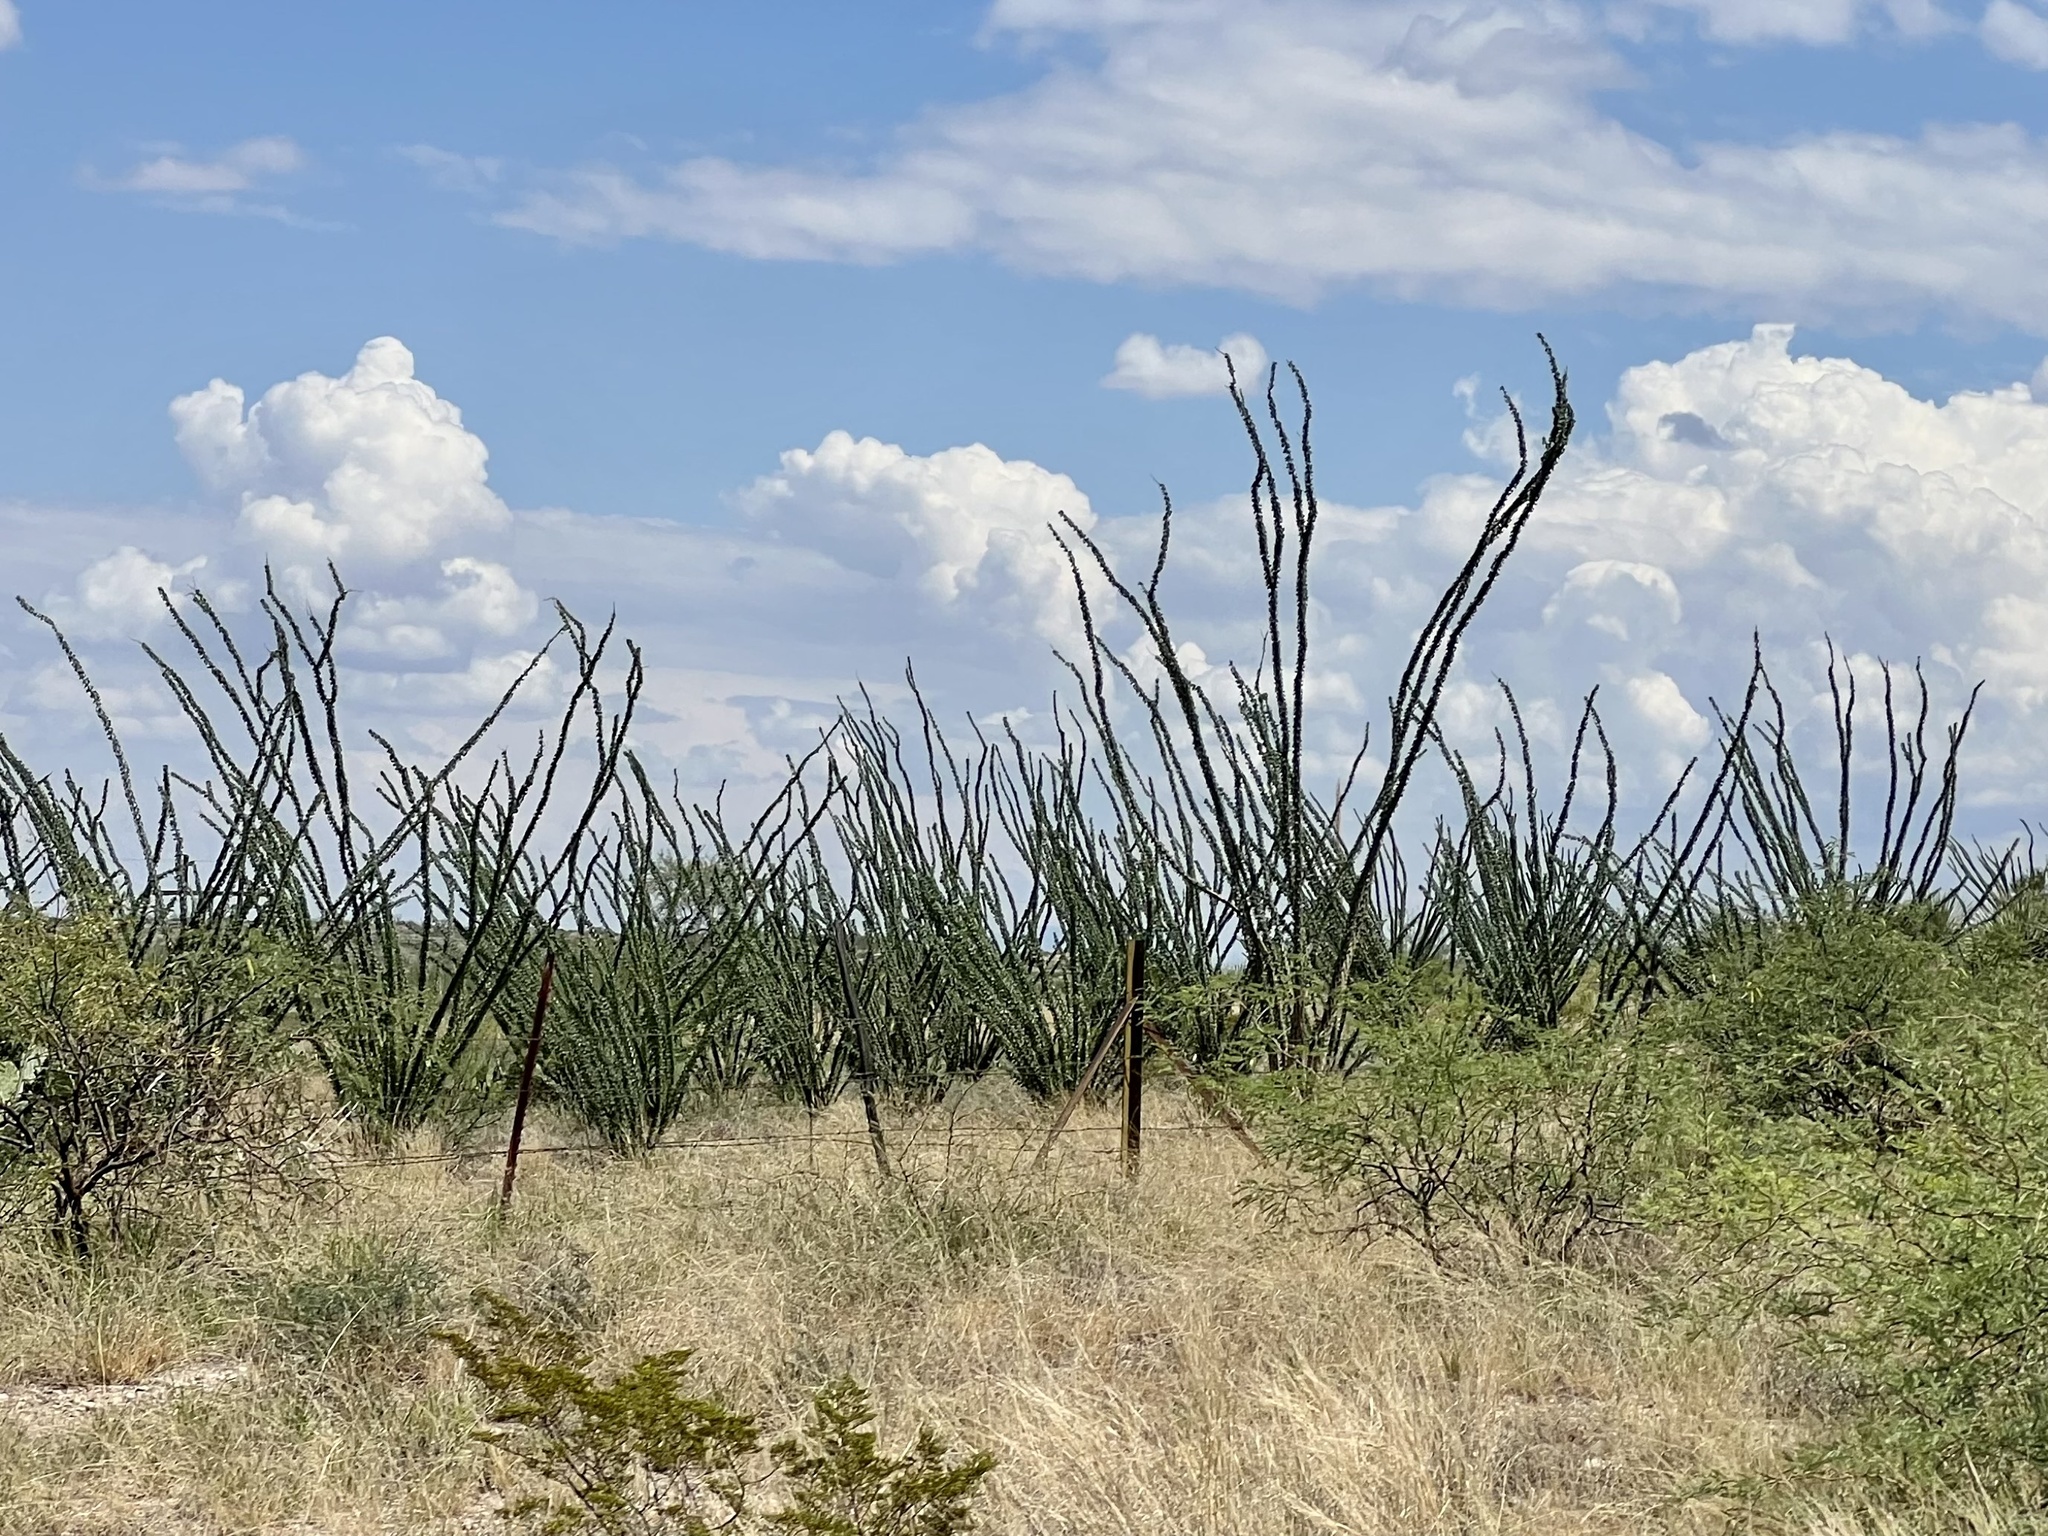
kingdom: Plantae
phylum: Tracheophyta
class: Magnoliopsida
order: Ericales
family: Fouquieriaceae
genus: Fouquieria
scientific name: Fouquieria splendens
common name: Vine-cactus
